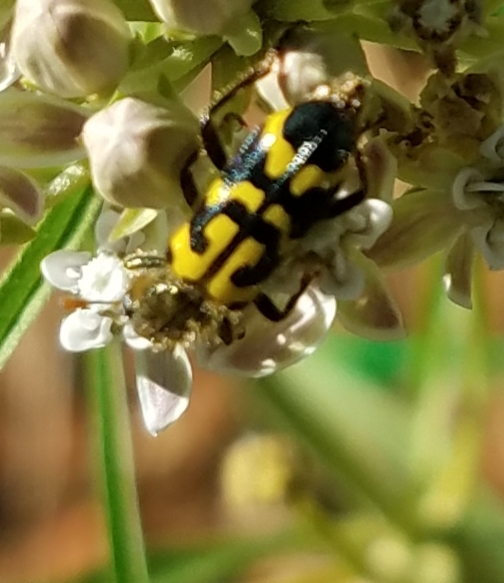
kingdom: Animalia
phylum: Arthropoda
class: Insecta
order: Coleoptera
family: Cleridae
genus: Trichodes
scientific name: Trichodes ornatus
